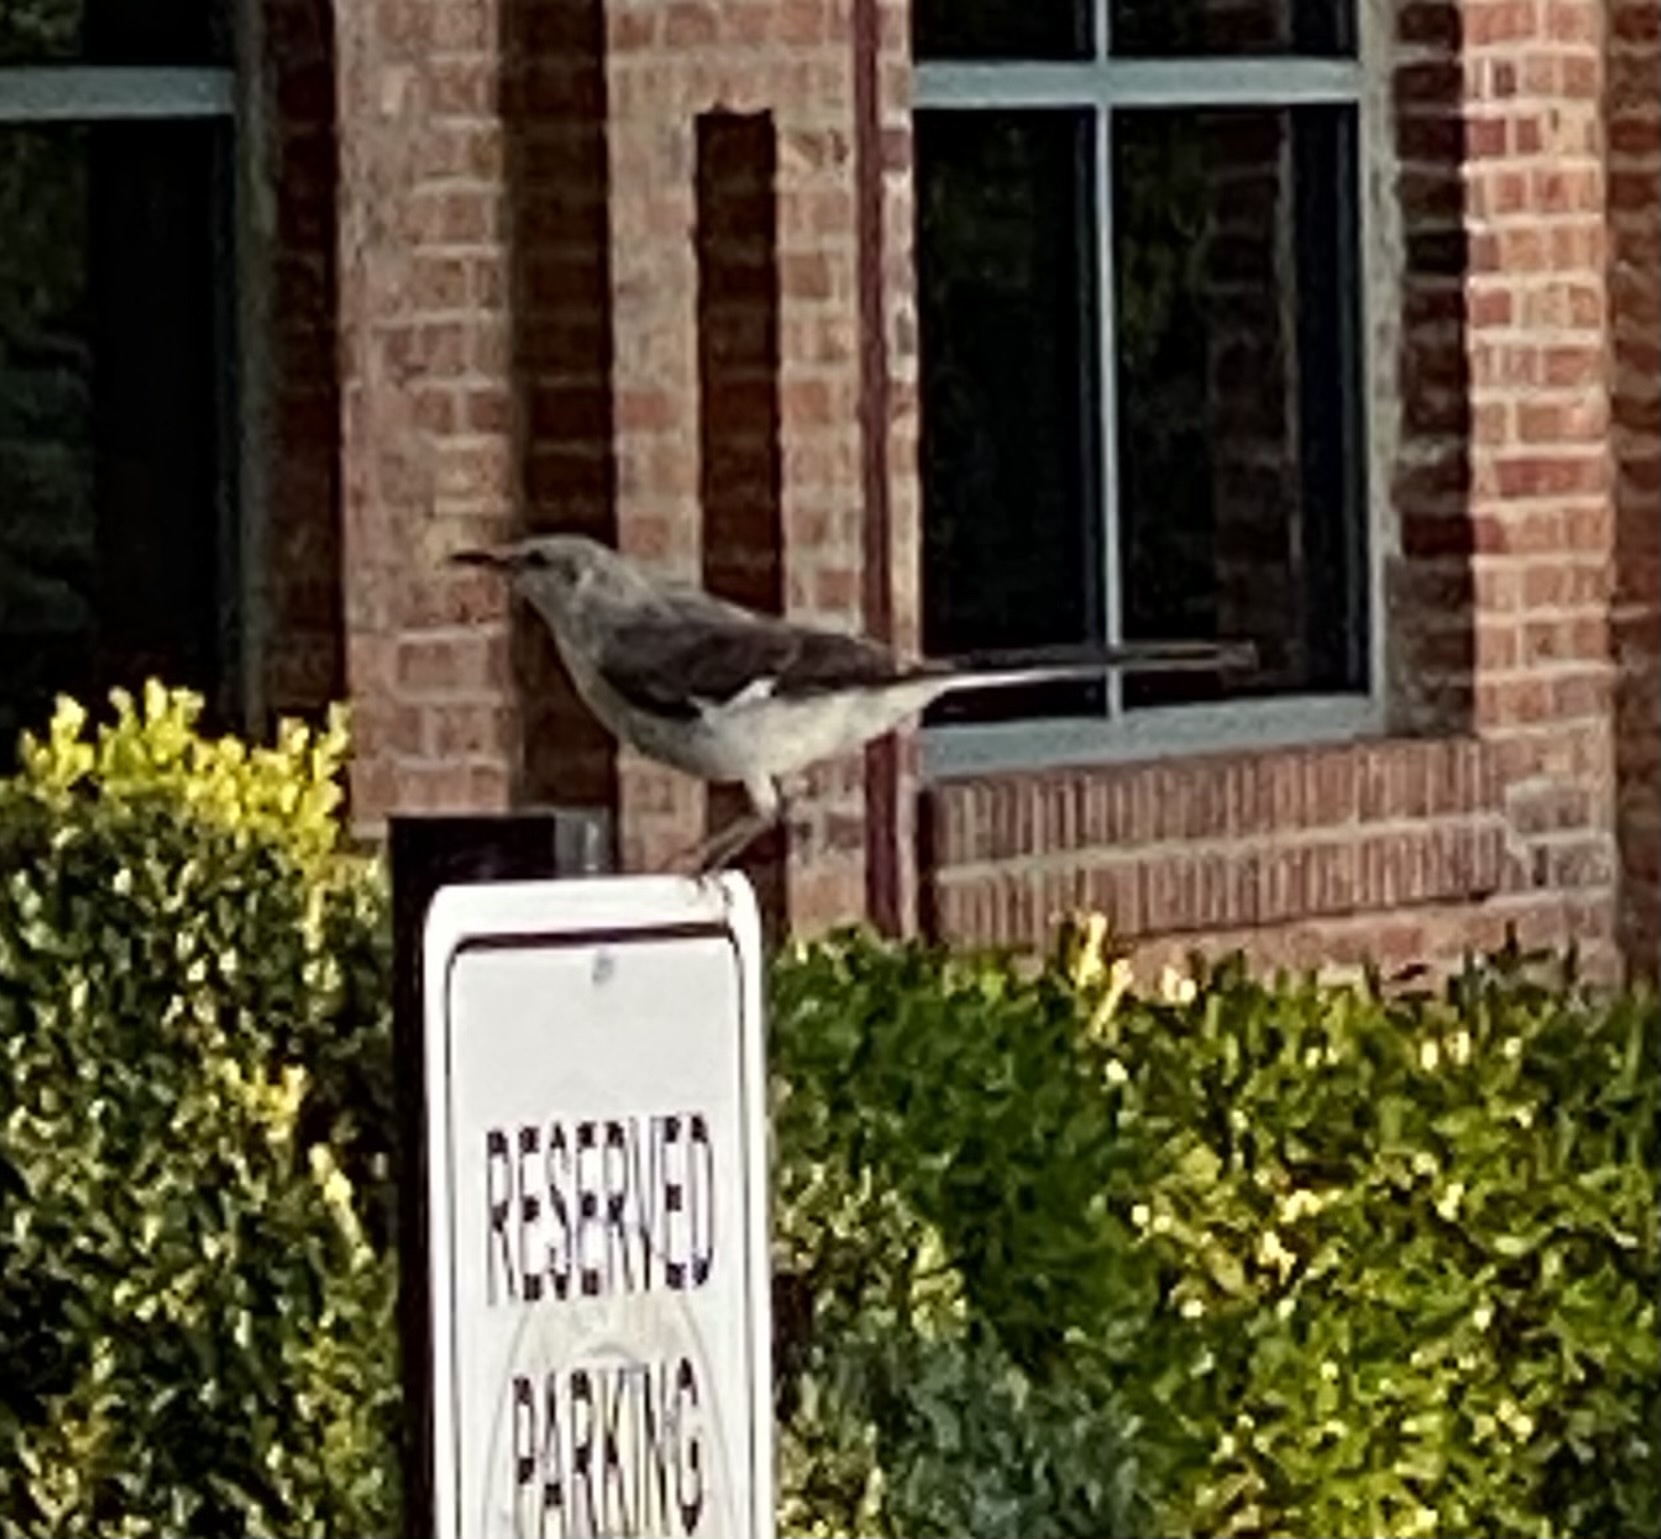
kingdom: Animalia
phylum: Chordata
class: Aves
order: Passeriformes
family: Mimidae
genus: Mimus
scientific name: Mimus polyglottos
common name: Northern mockingbird
